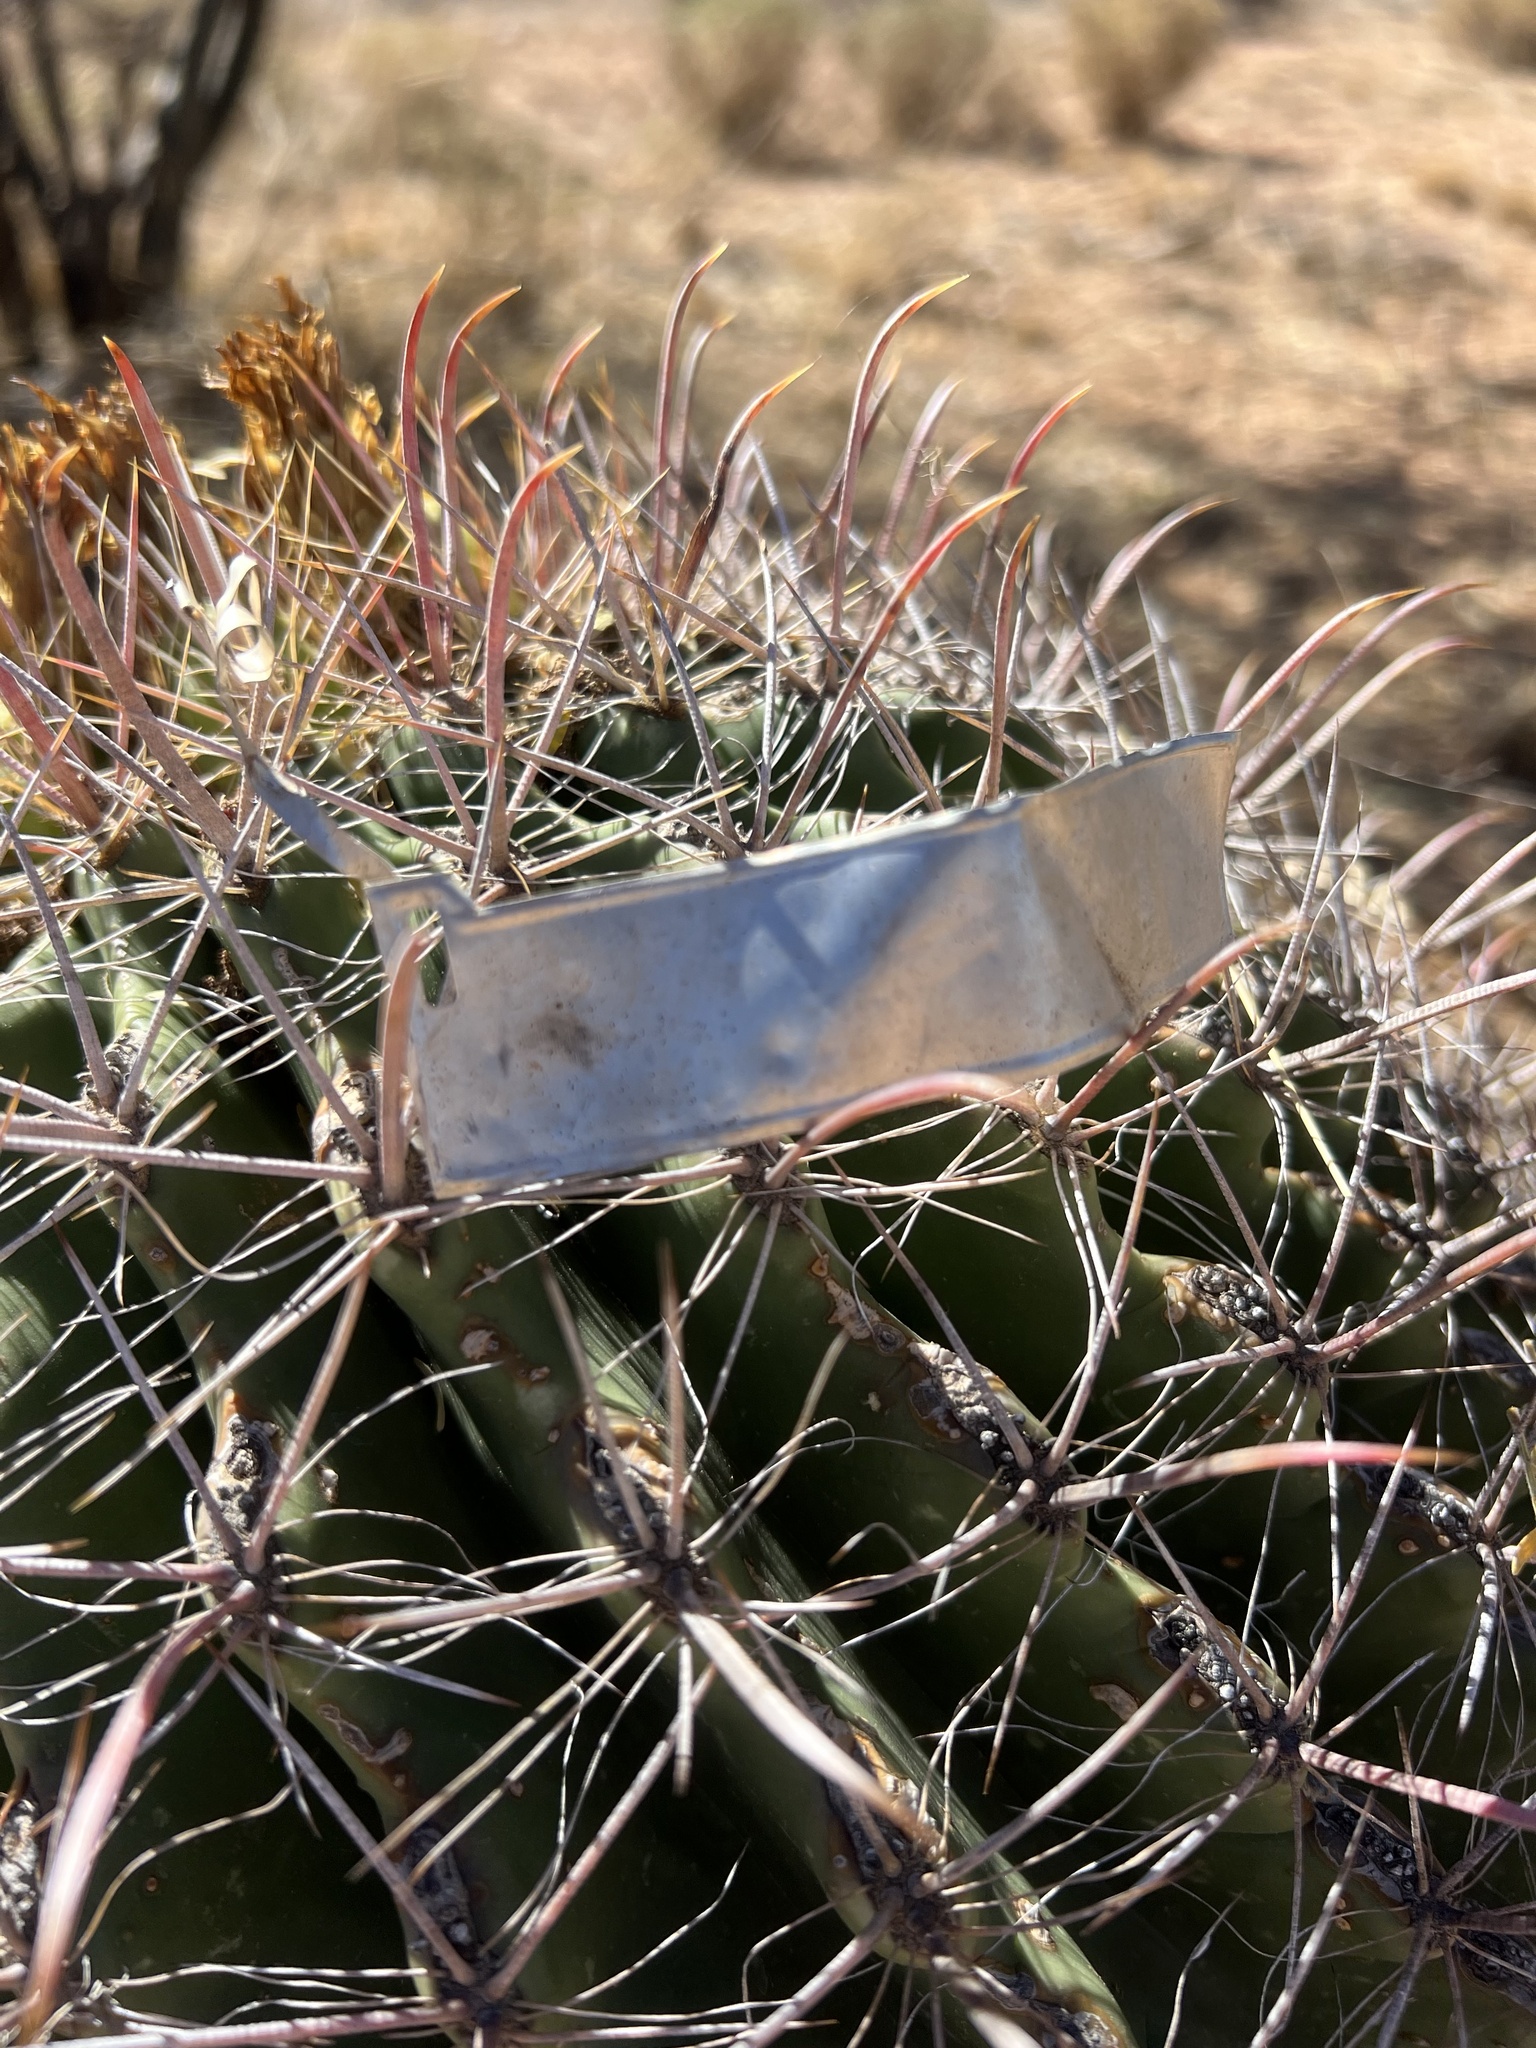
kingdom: Plantae
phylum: Tracheophyta
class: Magnoliopsida
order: Caryophyllales
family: Cactaceae
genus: Ferocactus
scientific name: Ferocactus wislizeni
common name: Candy barrel cactus
